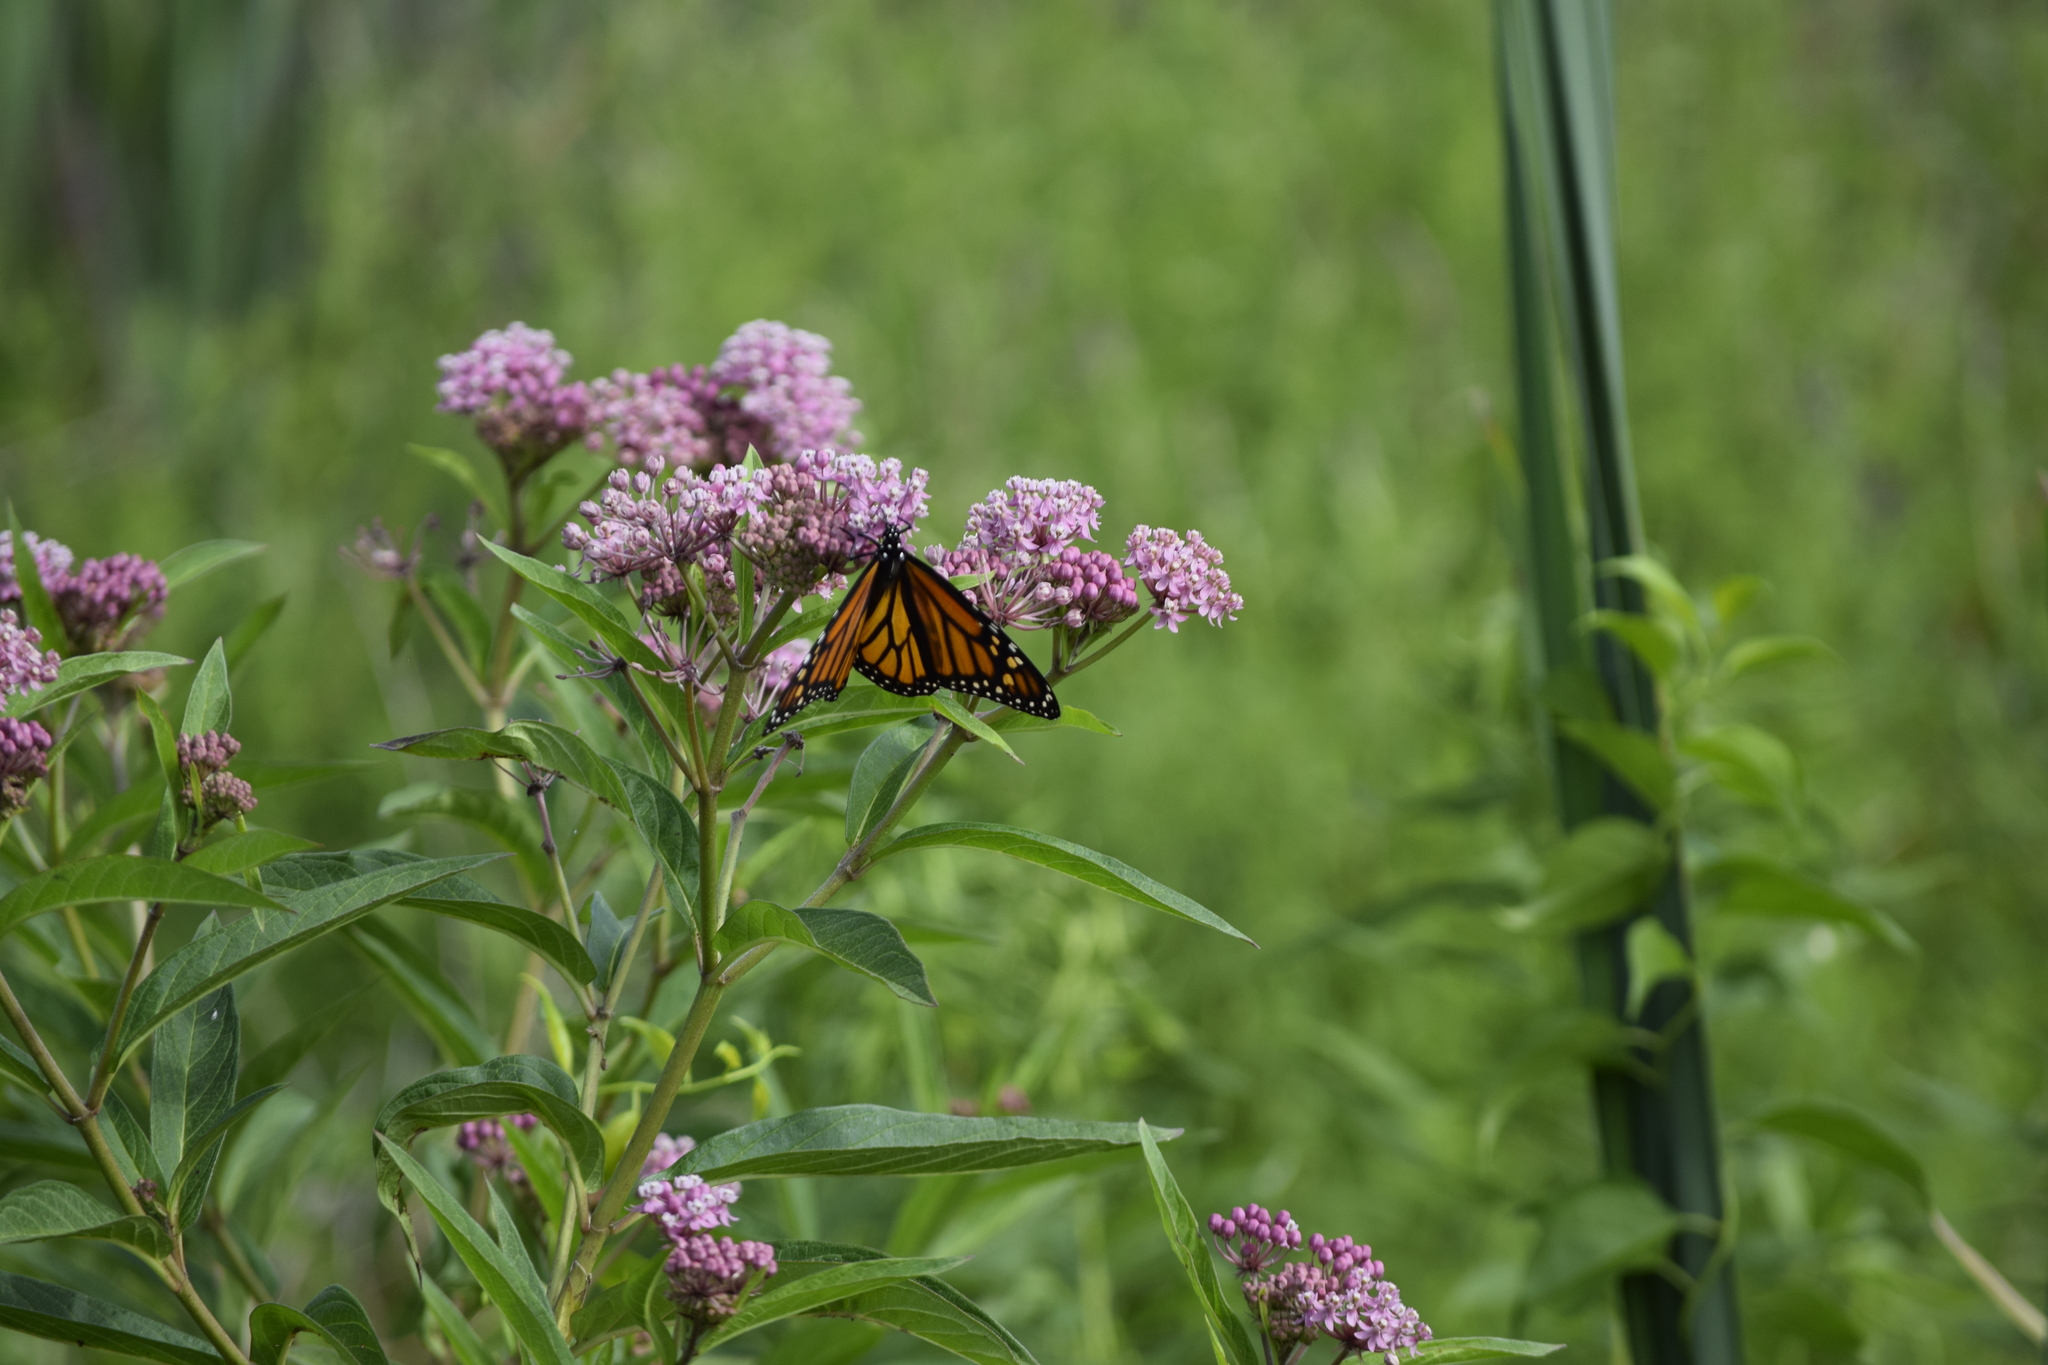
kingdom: Animalia
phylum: Arthropoda
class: Insecta
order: Lepidoptera
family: Nymphalidae
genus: Danaus
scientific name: Danaus plexippus
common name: Monarch
